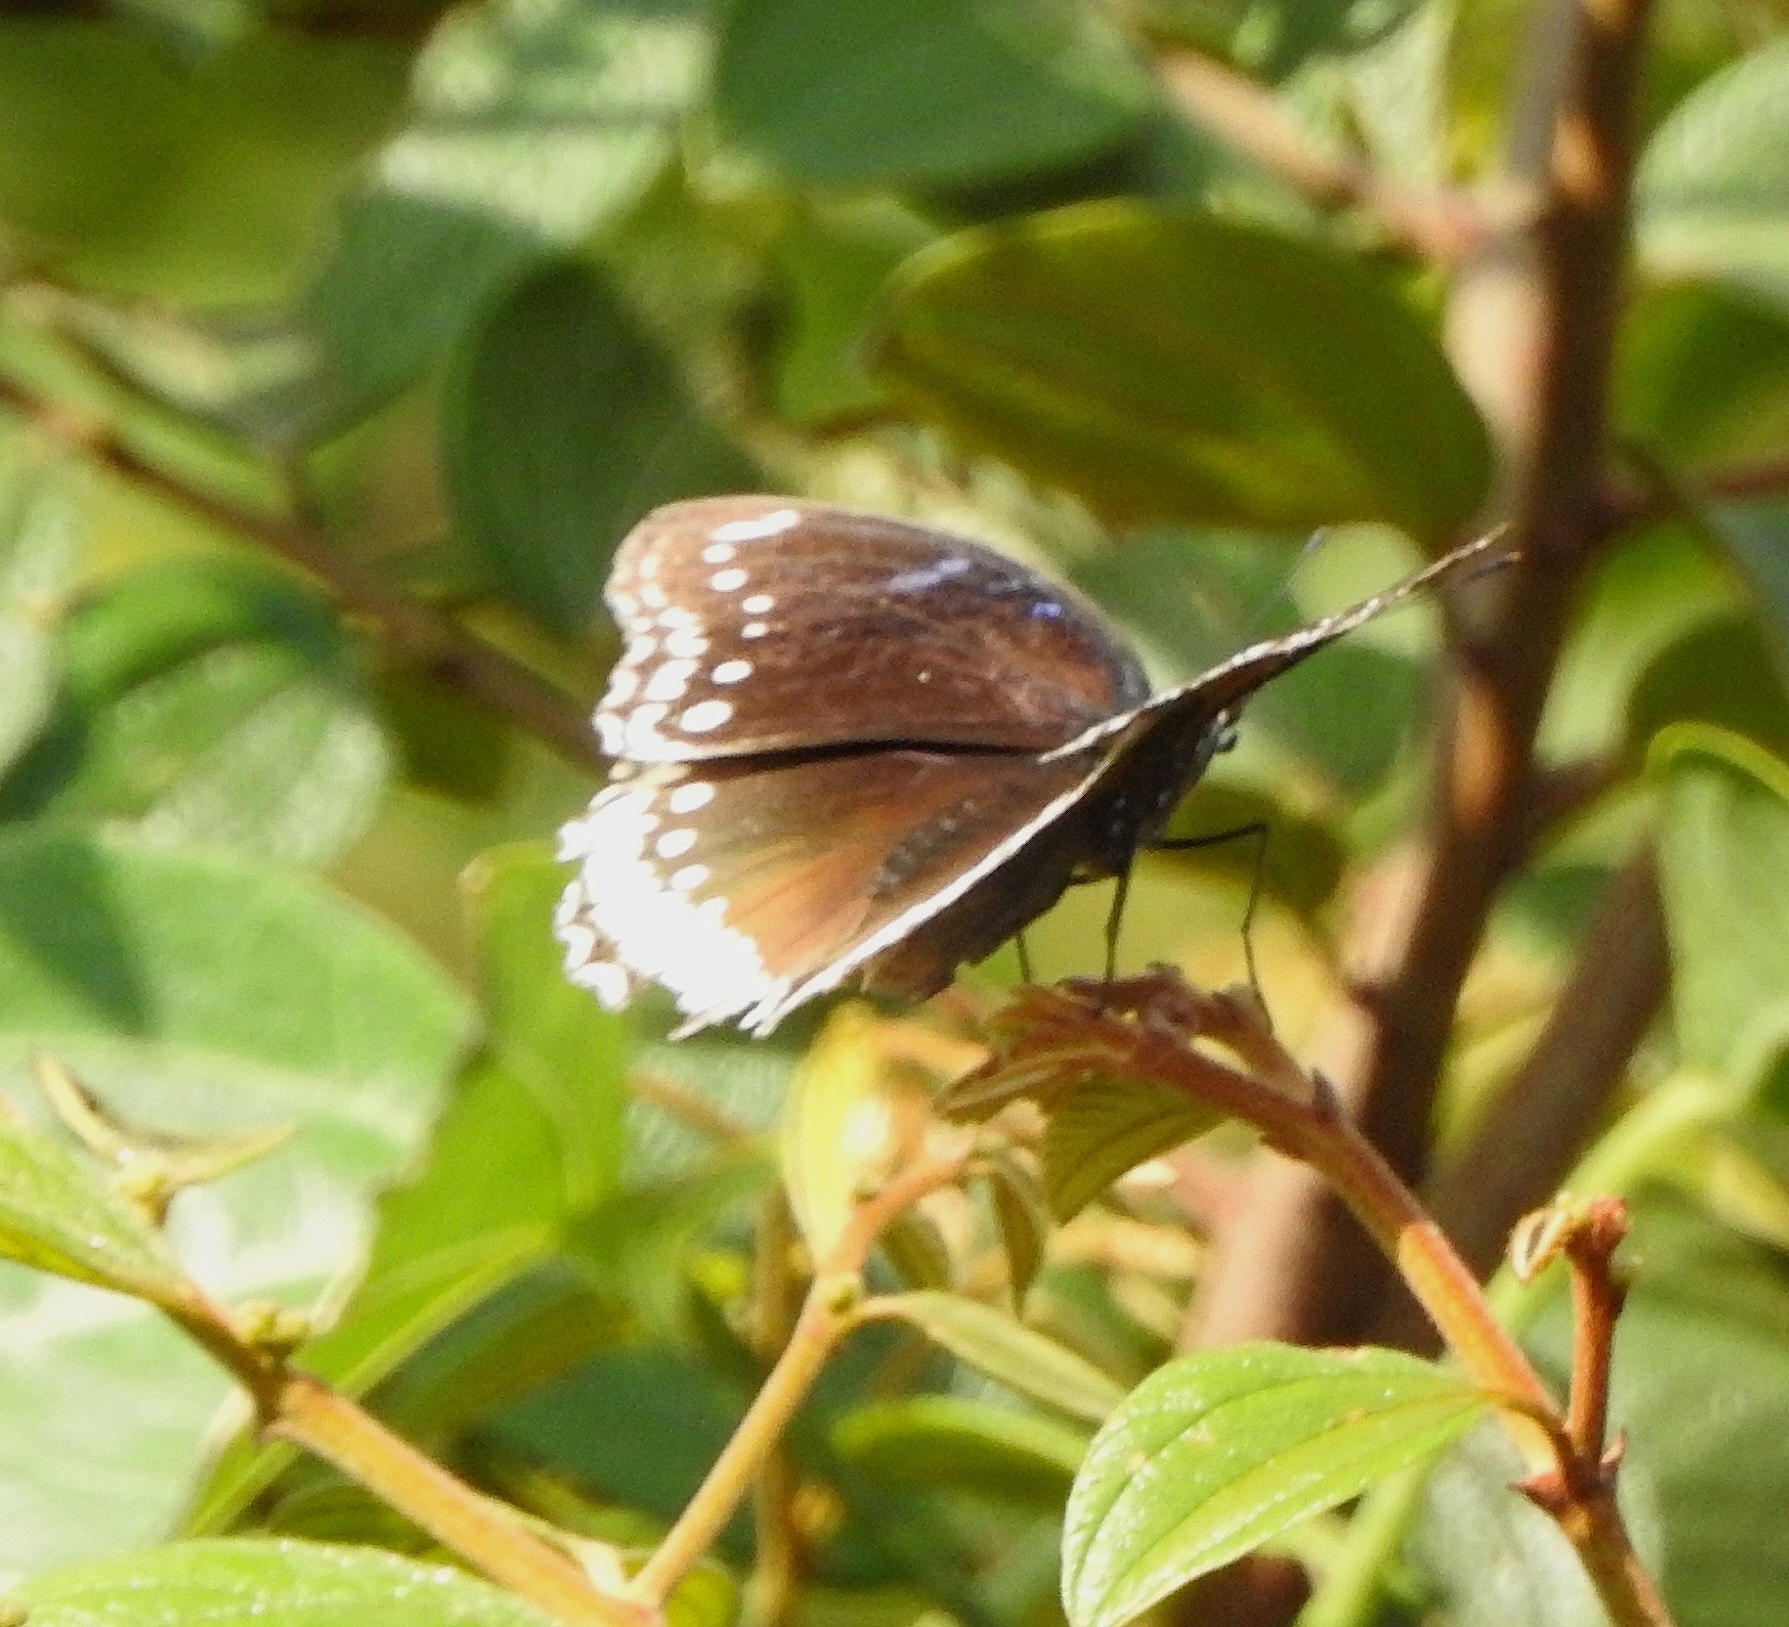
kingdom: Animalia
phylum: Arthropoda
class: Insecta
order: Lepidoptera
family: Nymphalidae
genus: Hypolimnas
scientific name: Hypolimnas bolina
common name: Great eggfly
